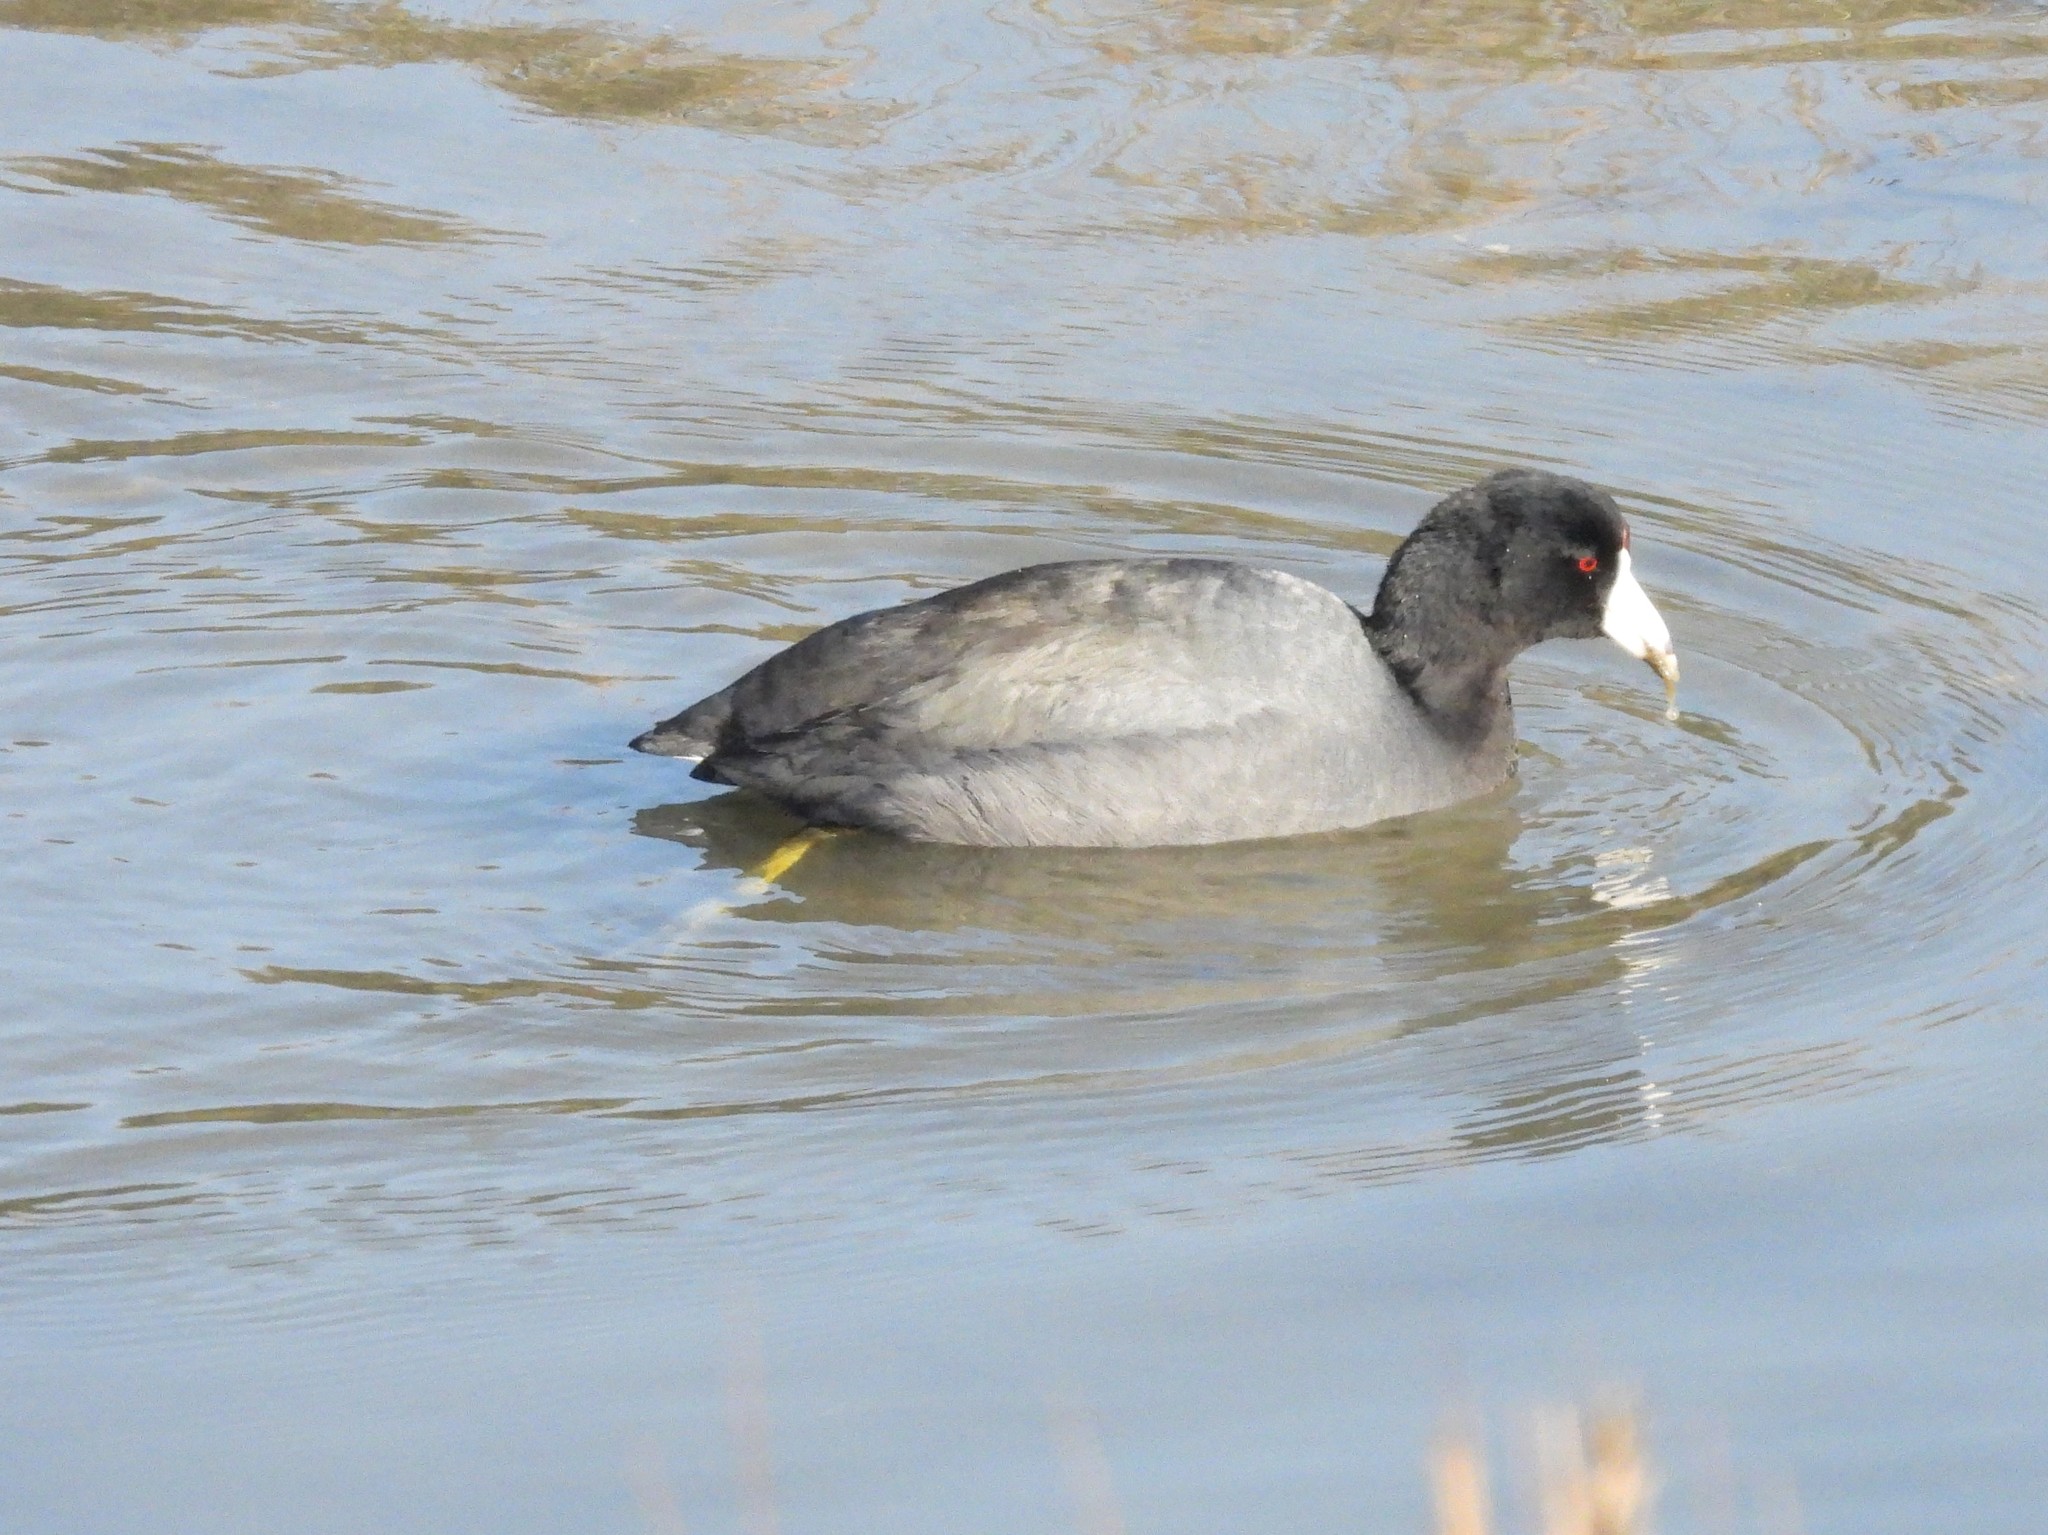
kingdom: Animalia
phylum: Chordata
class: Aves
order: Gruiformes
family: Rallidae
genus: Fulica
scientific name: Fulica americana
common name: American coot
